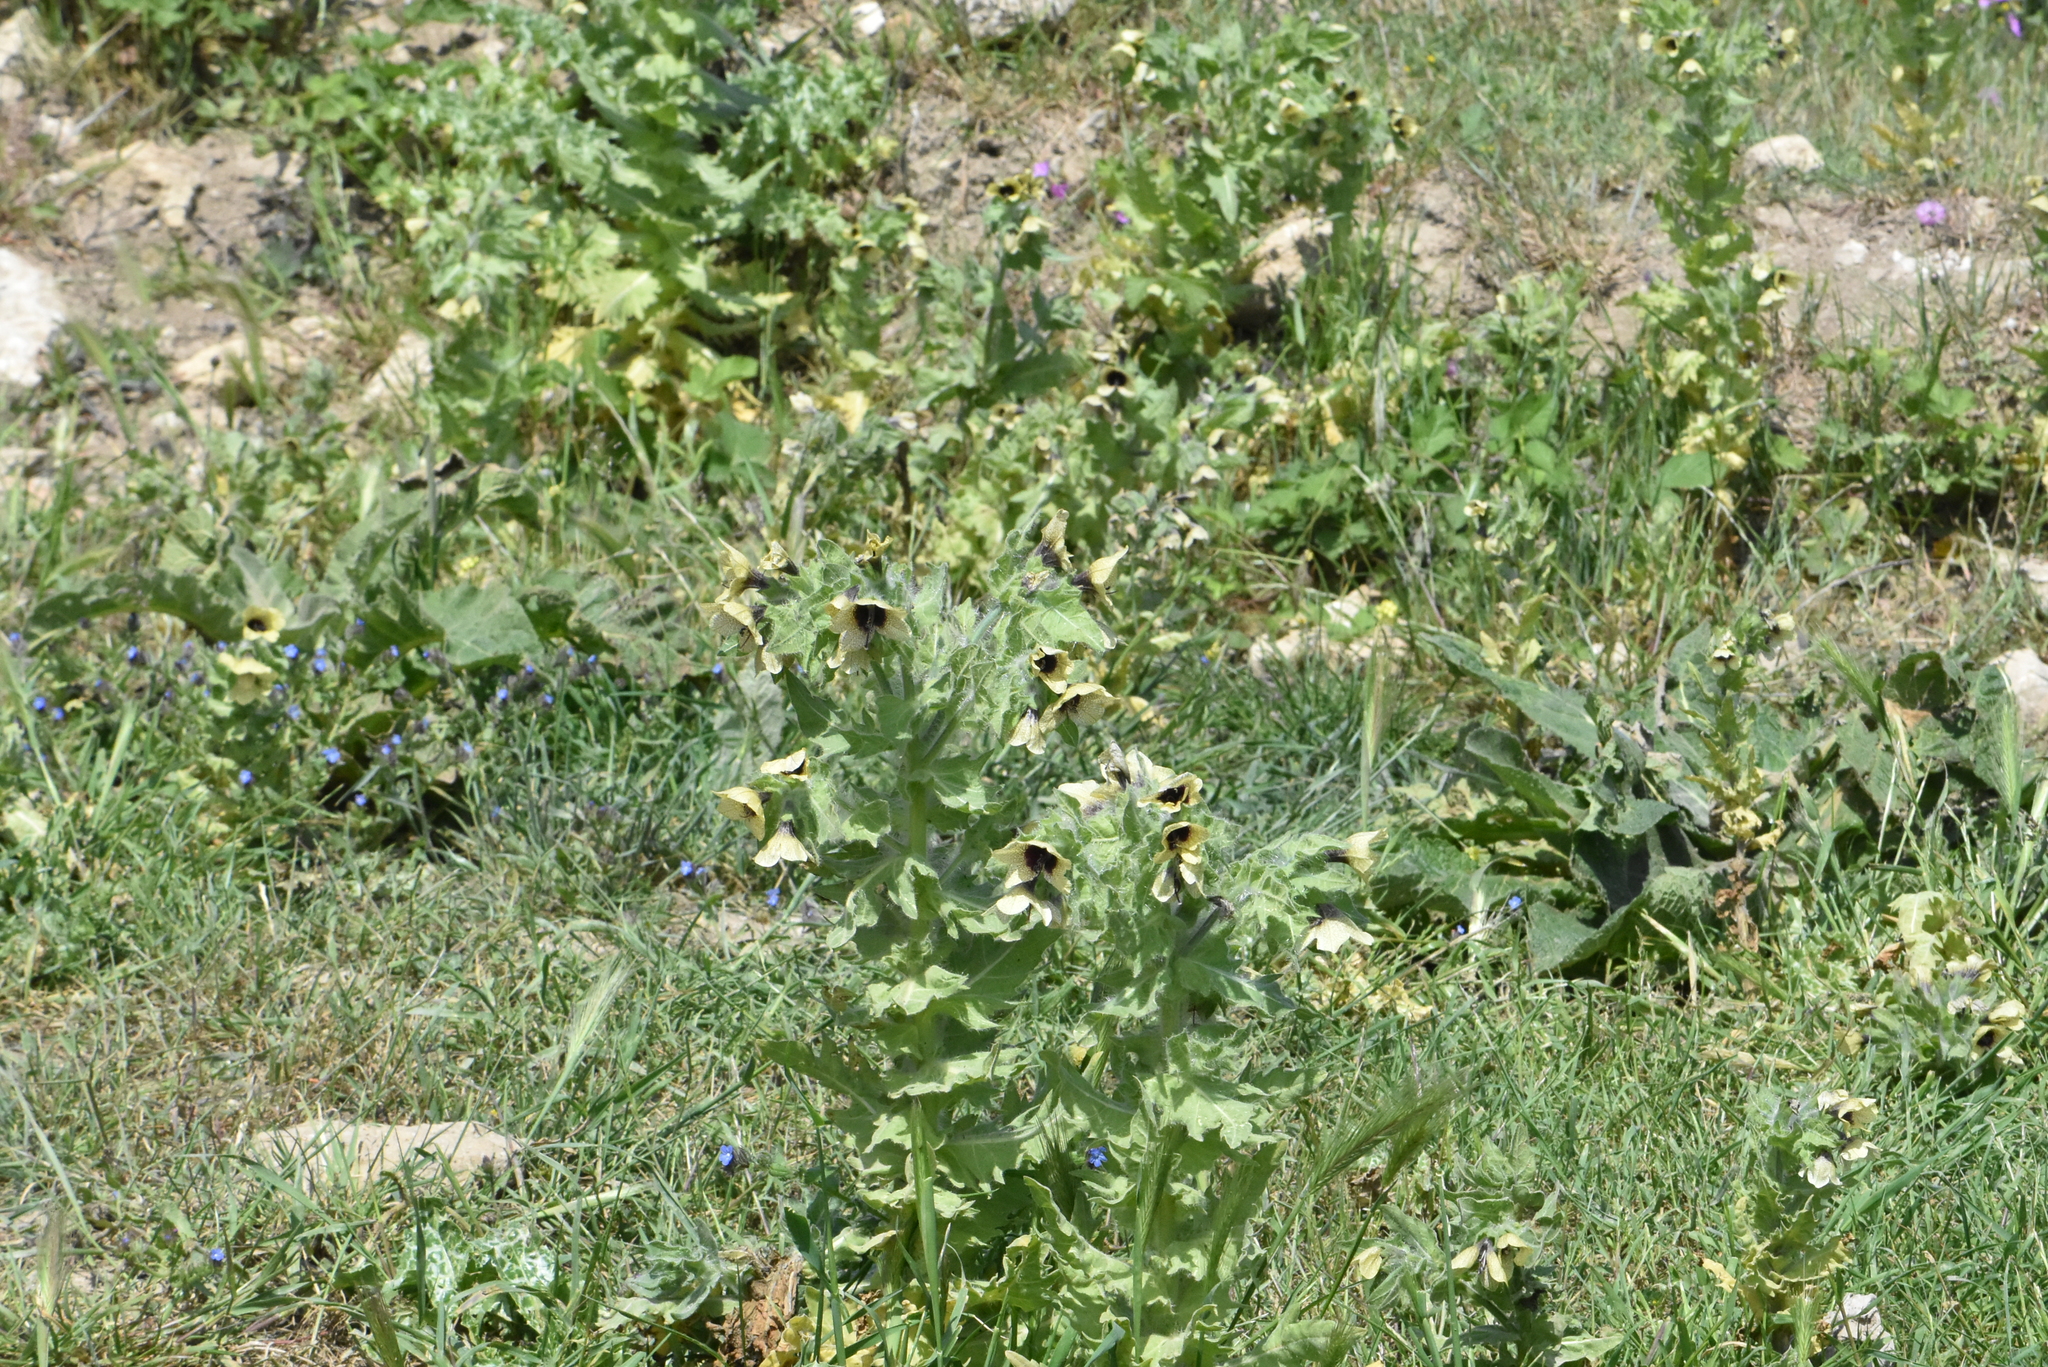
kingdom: Plantae
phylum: Tracheophyta
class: Magnoliopsida
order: Solanales
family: Solanaceae
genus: Hyoscyamus
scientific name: Hyoscyamus niger
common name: Henbane
